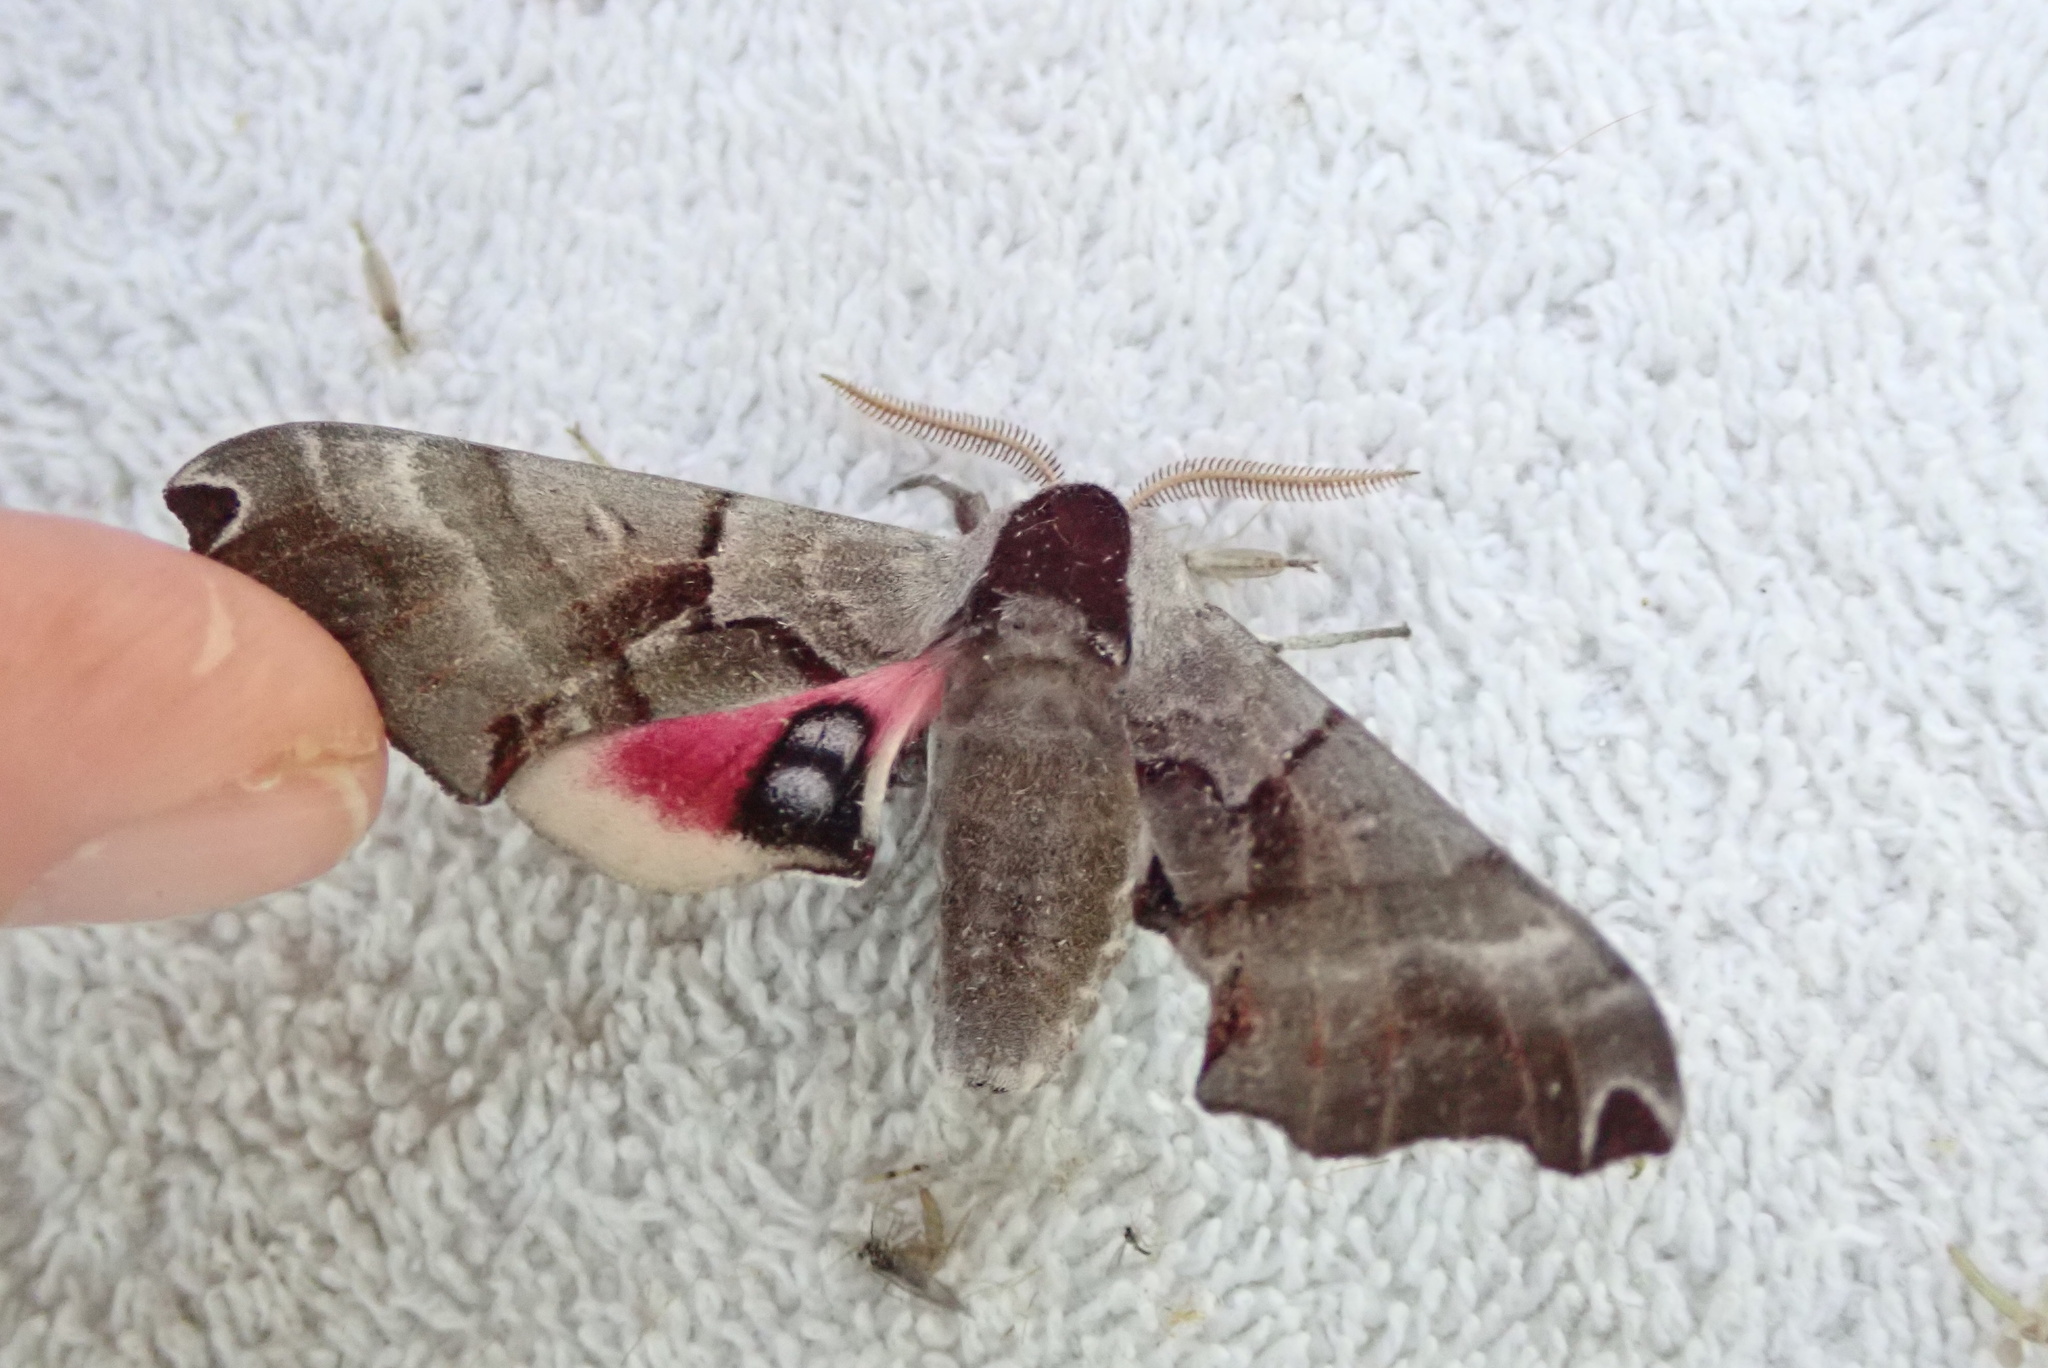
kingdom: Animalia
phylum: Arthropoda
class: Insecta
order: Lepidoptera
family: Sphingidae
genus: Smerinthus
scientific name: Smerinthus jamaicensis
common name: Twin spotted sphinx
